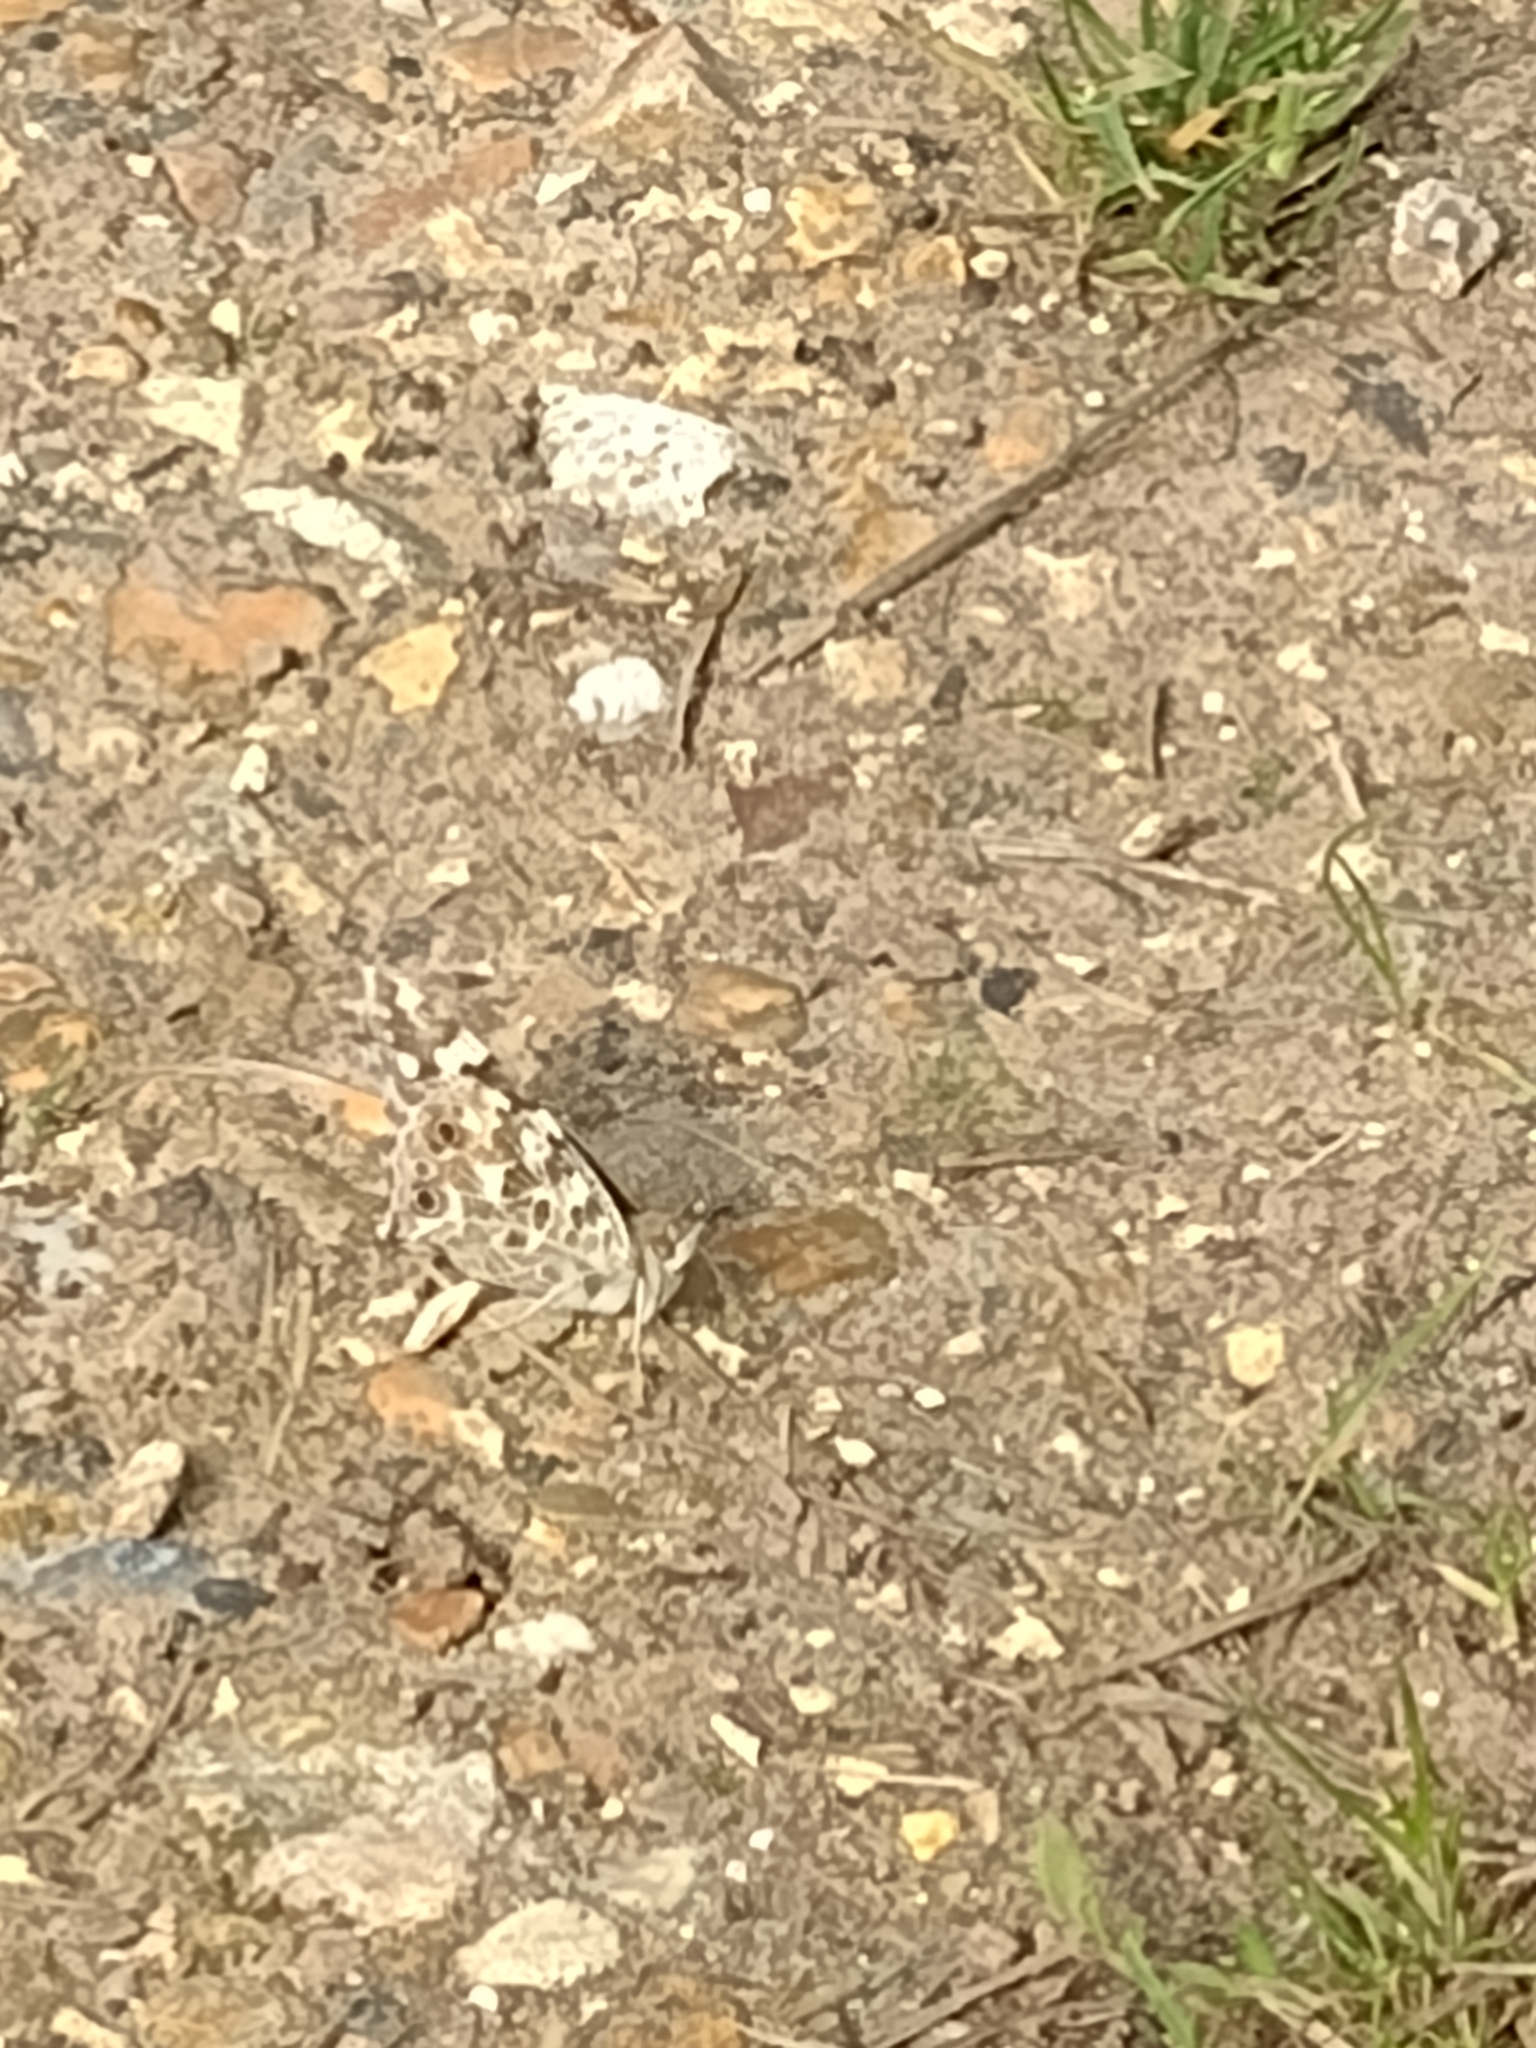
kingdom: Animalia
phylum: Arthropoda
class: Insecta
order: Lepidoptera
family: Nymphalidae
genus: Vanessa
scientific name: Vanessa cardui
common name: Painted lady
